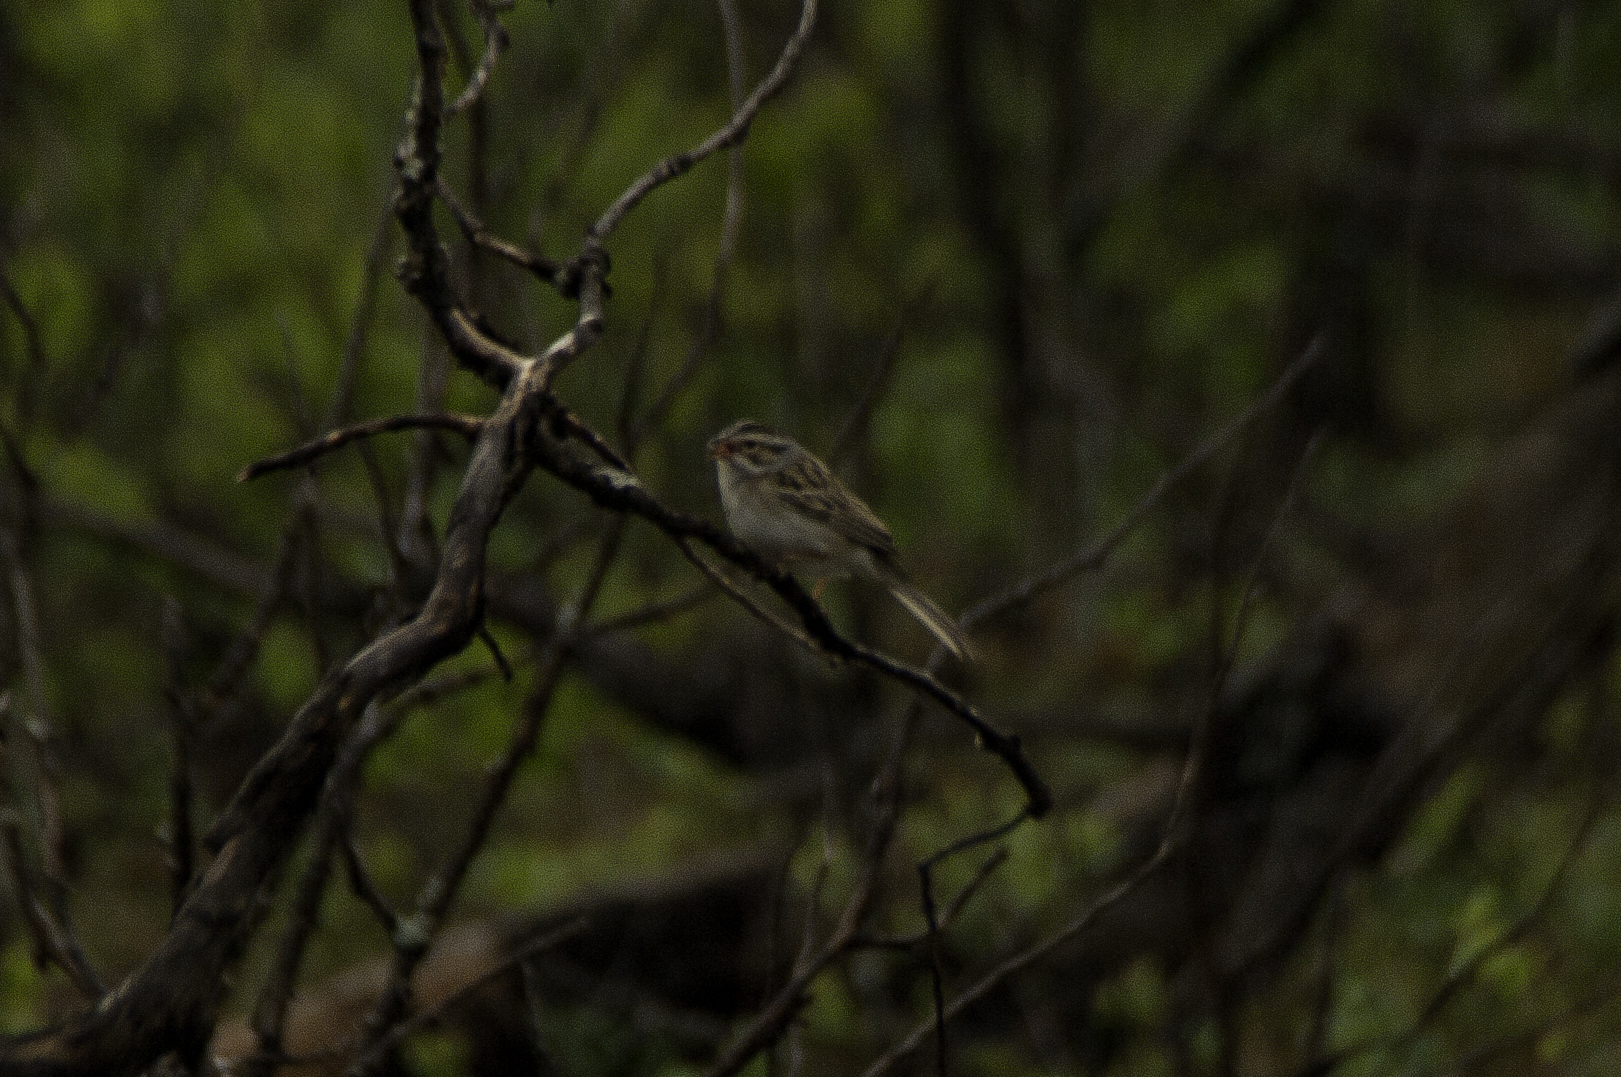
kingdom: Animalia
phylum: Chordata
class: Aves
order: Passeriformes
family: Passerellidae
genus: Spizella
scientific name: Spizella pallida
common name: Clay-colored sparrow
